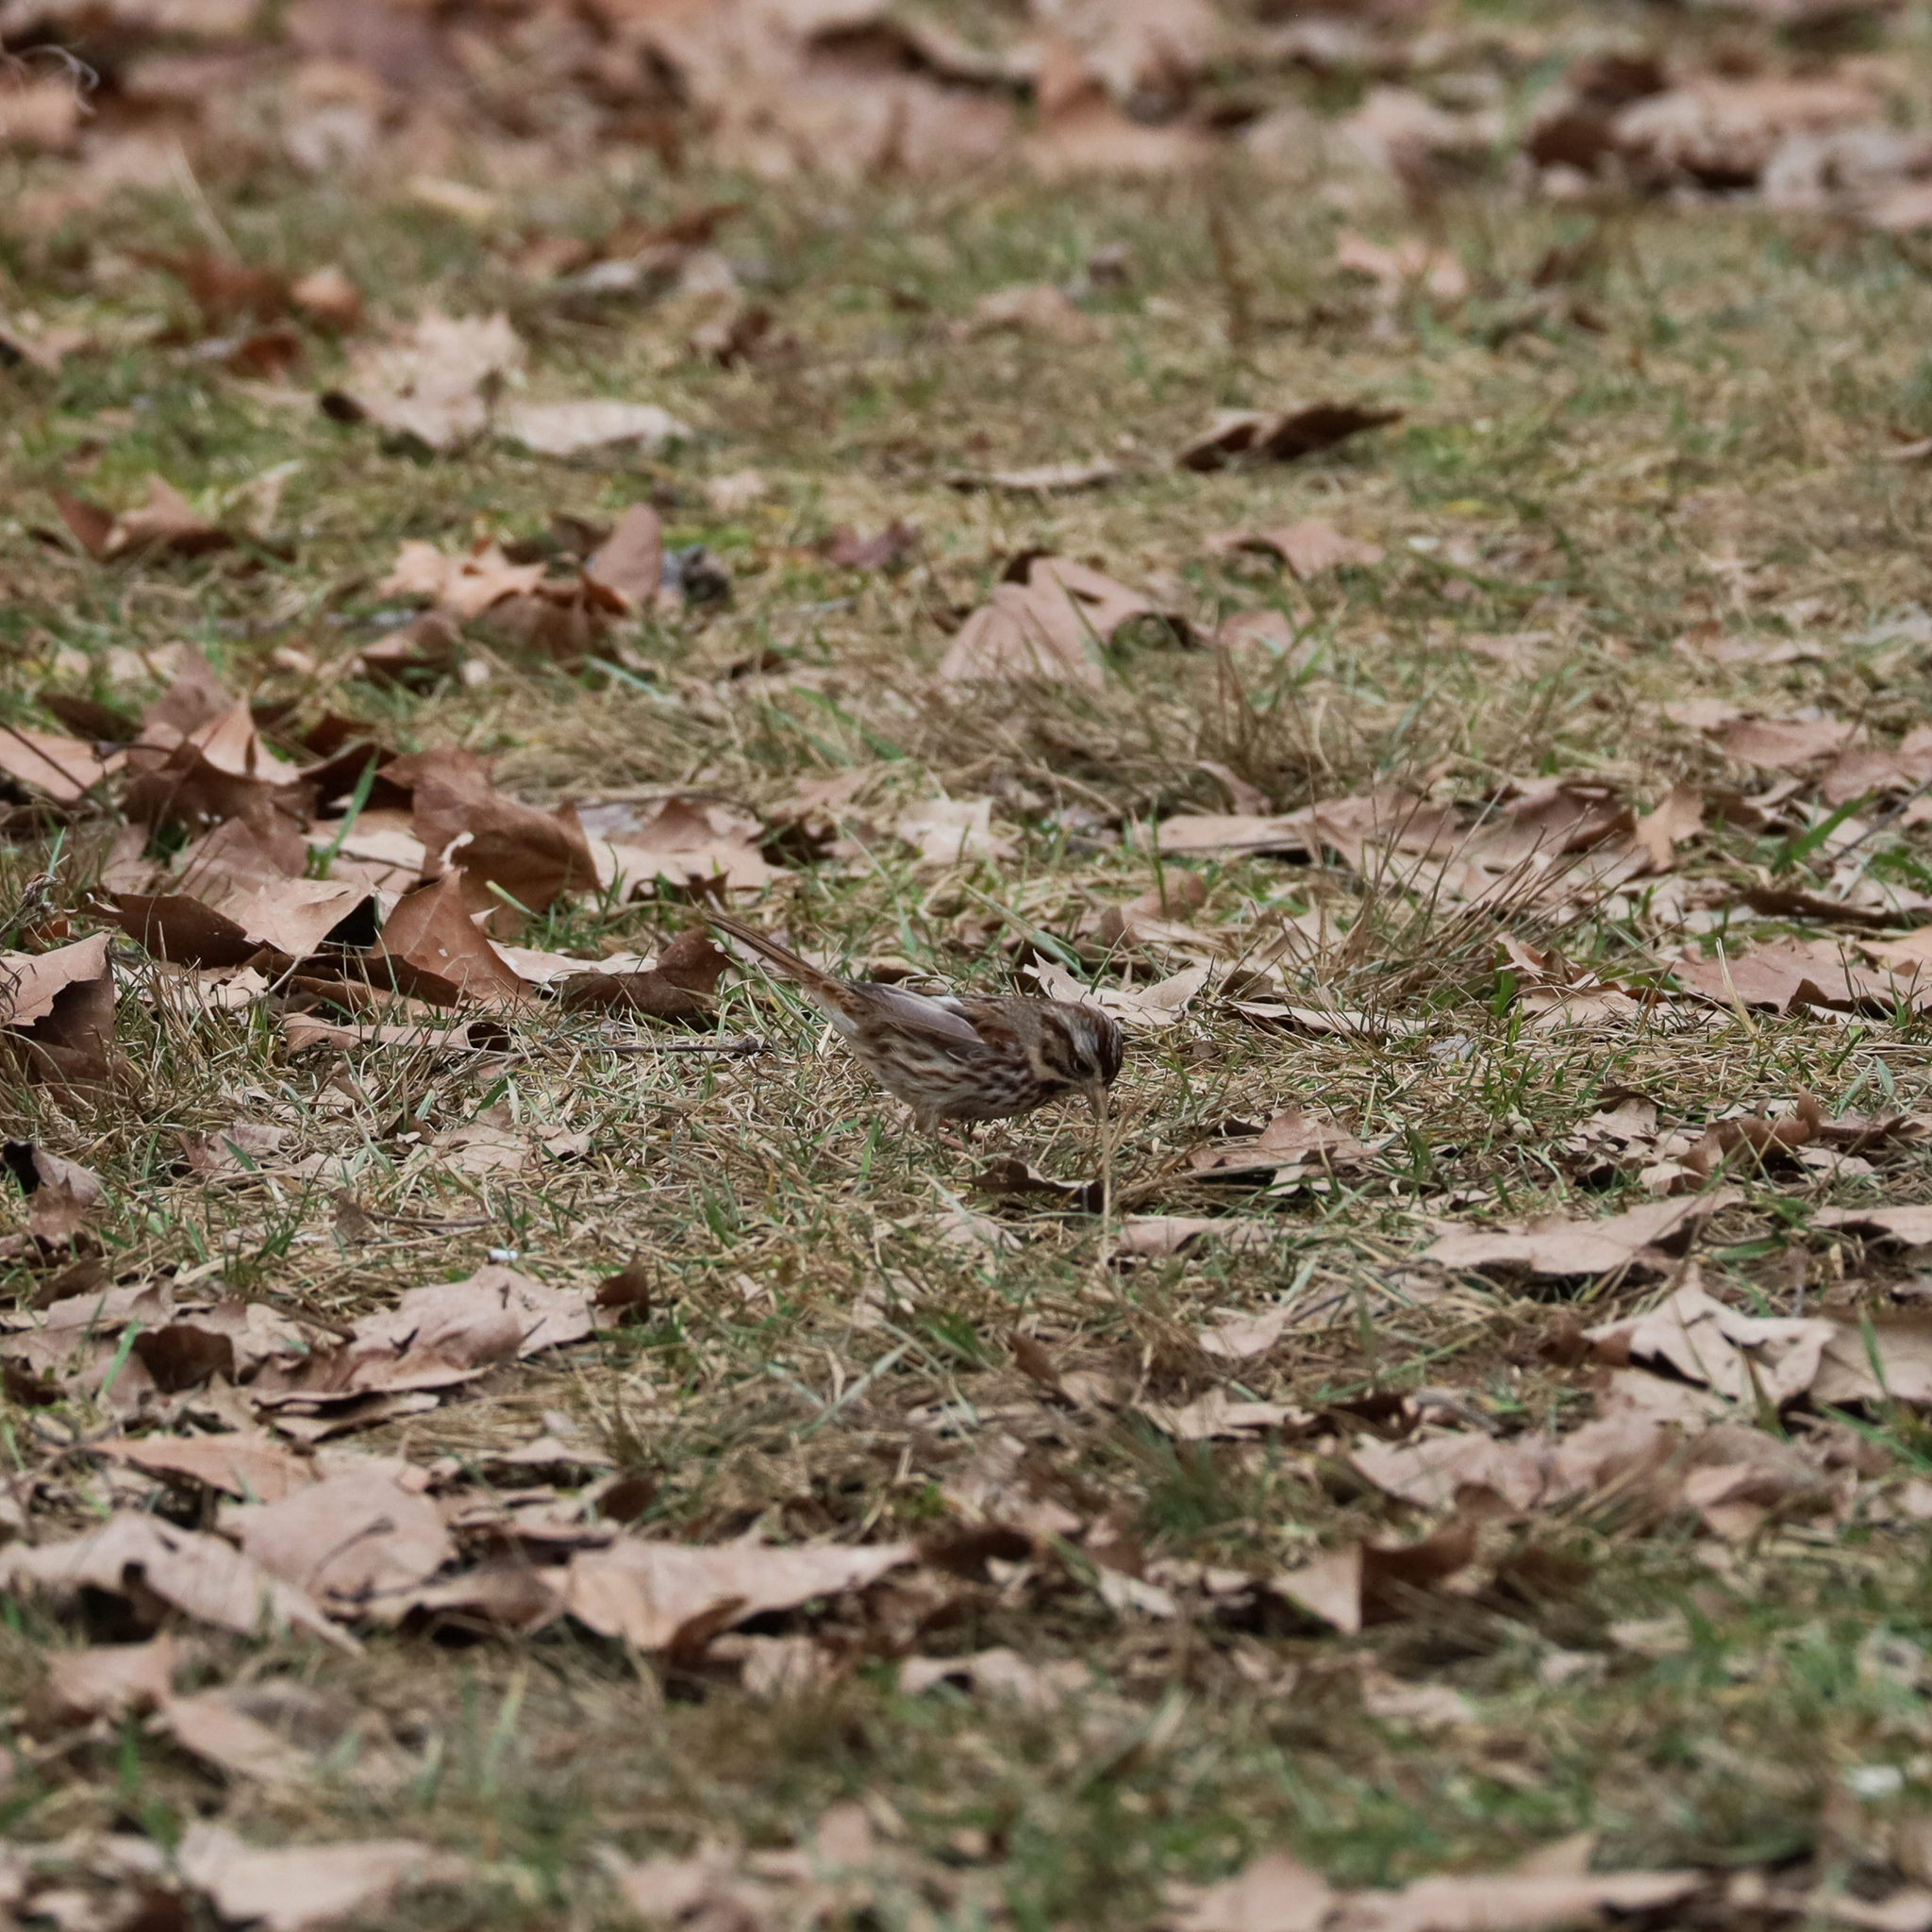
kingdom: Animalia
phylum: Chordata
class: Aves
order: Passeriformes
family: Passerellidae
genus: Melospiza
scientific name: Melospiza melodia
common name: Song sparrow
